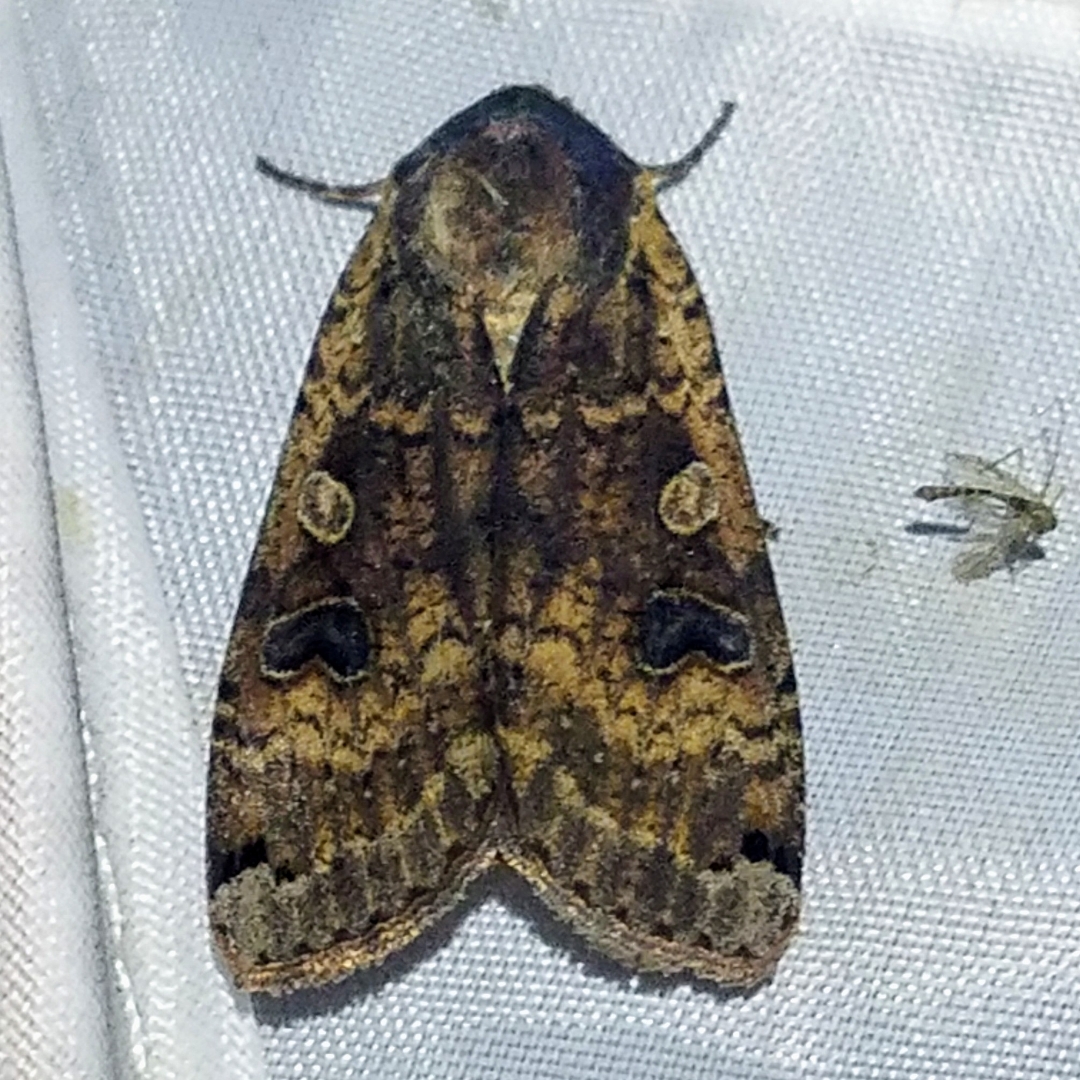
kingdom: Animalia
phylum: Arthropoda
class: Insecta
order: Lepidoptera
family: Noctuidae
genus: Noctua
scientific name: Noctua pronuba
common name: Large yellow underwing
